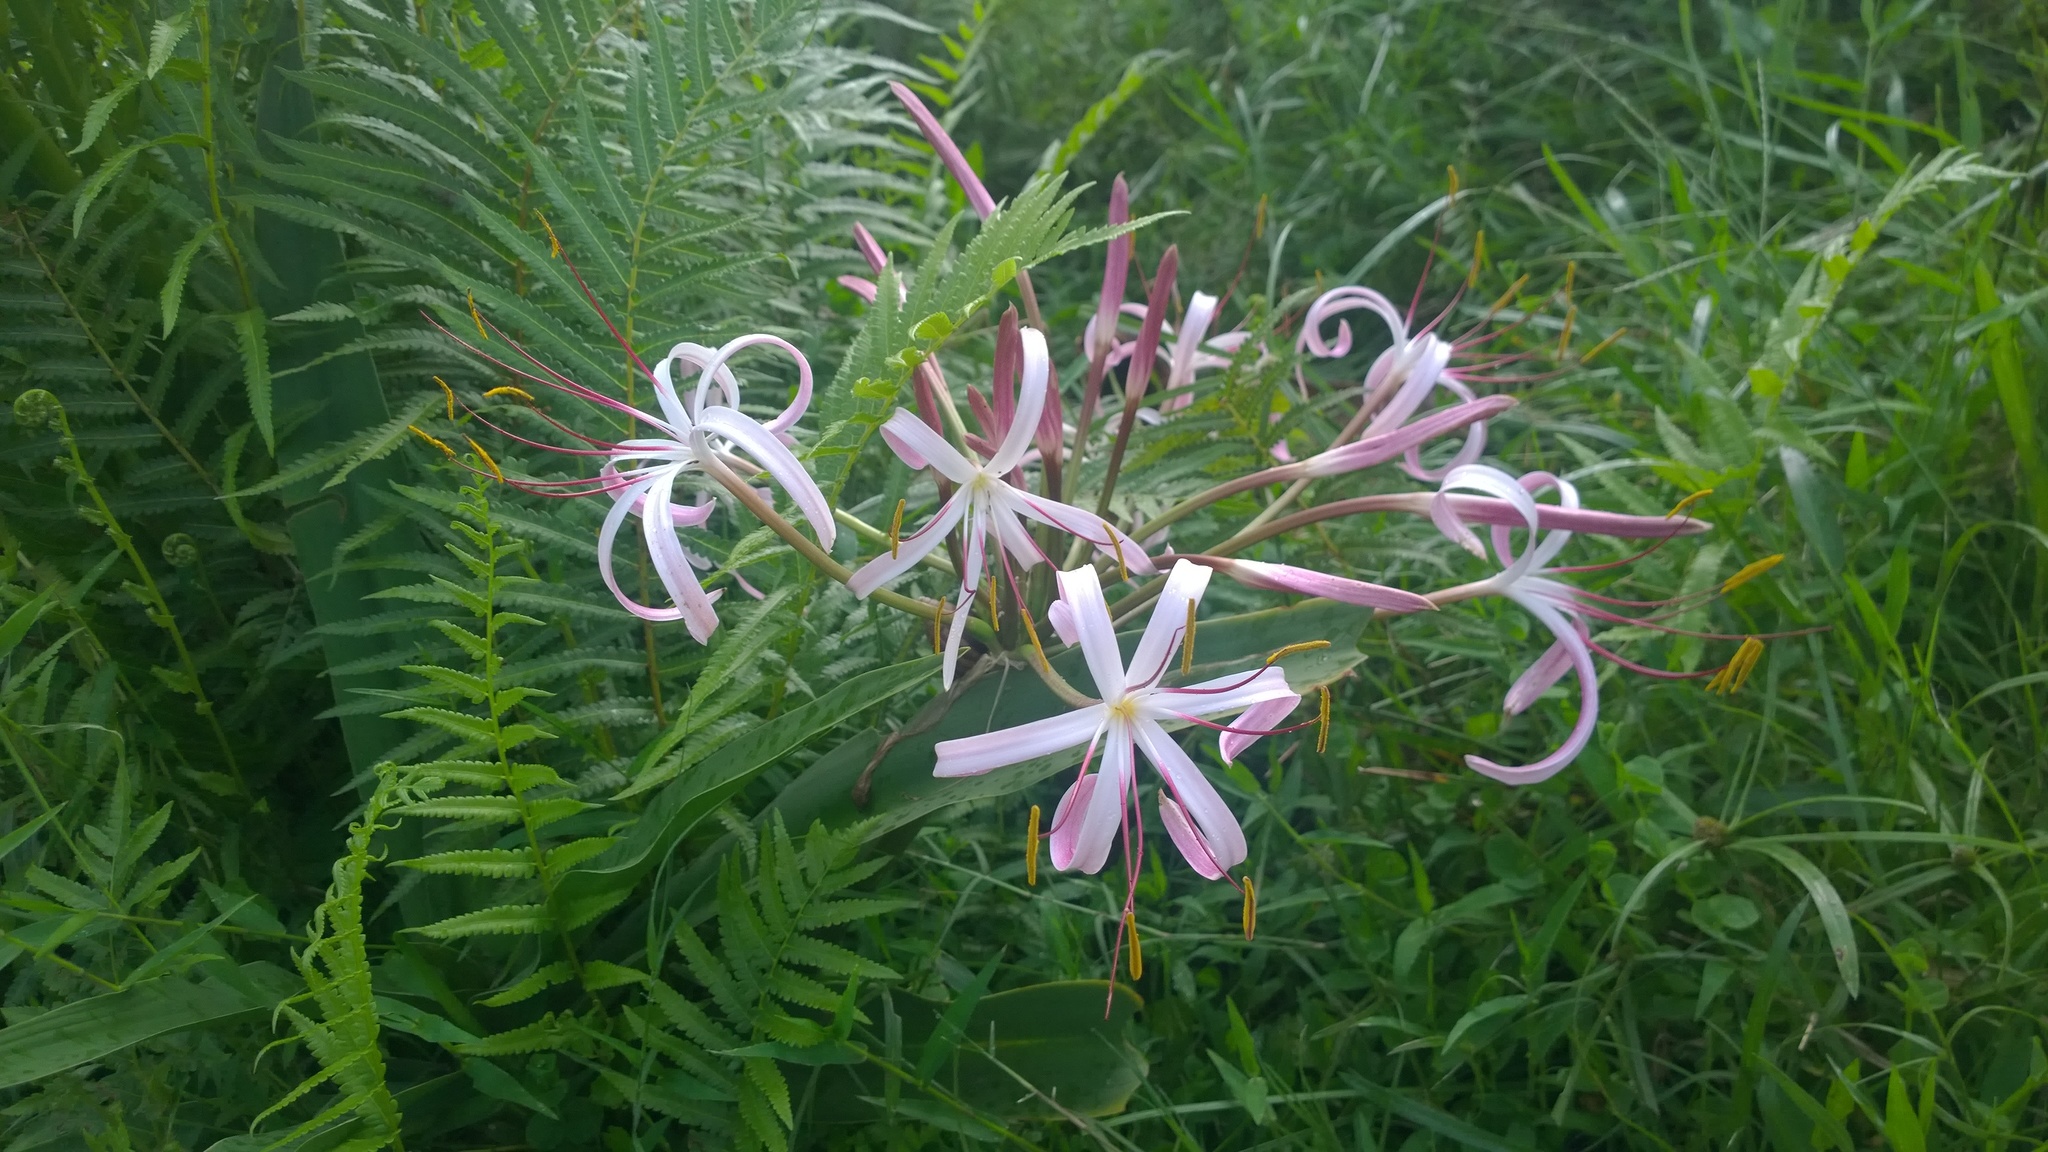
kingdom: Plantae
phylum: Tracheophyta
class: Liliopsida
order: Asparagales
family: Amaryllidaceae
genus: Crinum
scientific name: Crinum mauritianum
